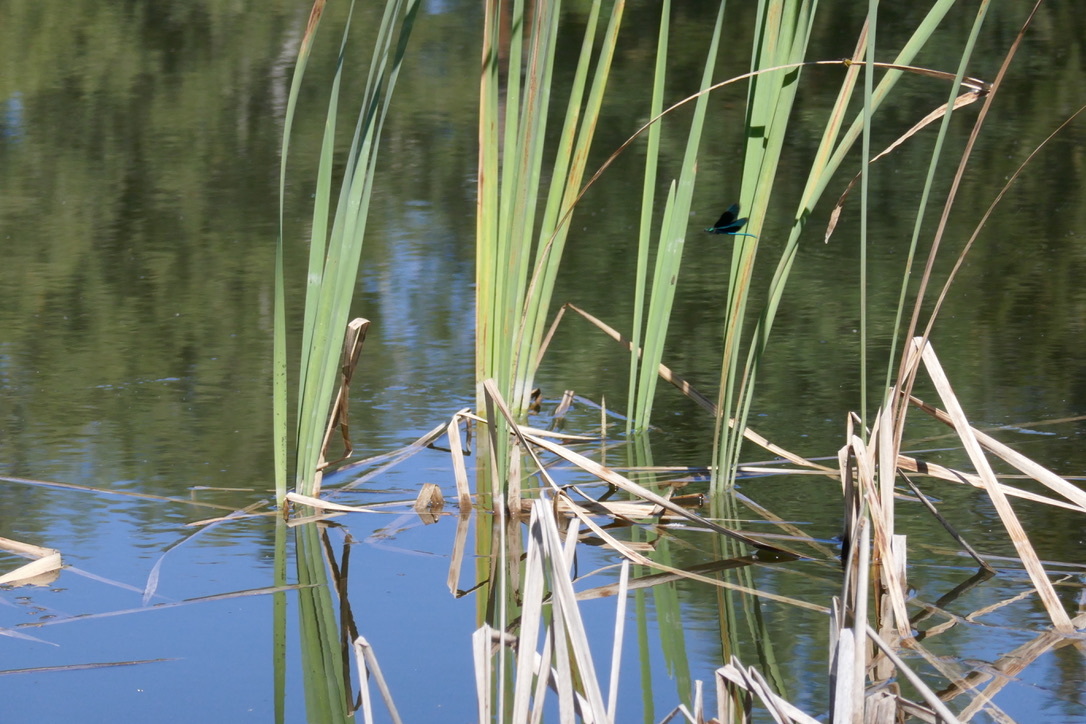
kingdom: Animalia
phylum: Arthropoda
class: Insecta
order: Odonata
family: Calopterygidae
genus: Calopteryx
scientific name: Calopteryx virgo
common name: Beautiful demoiselle
